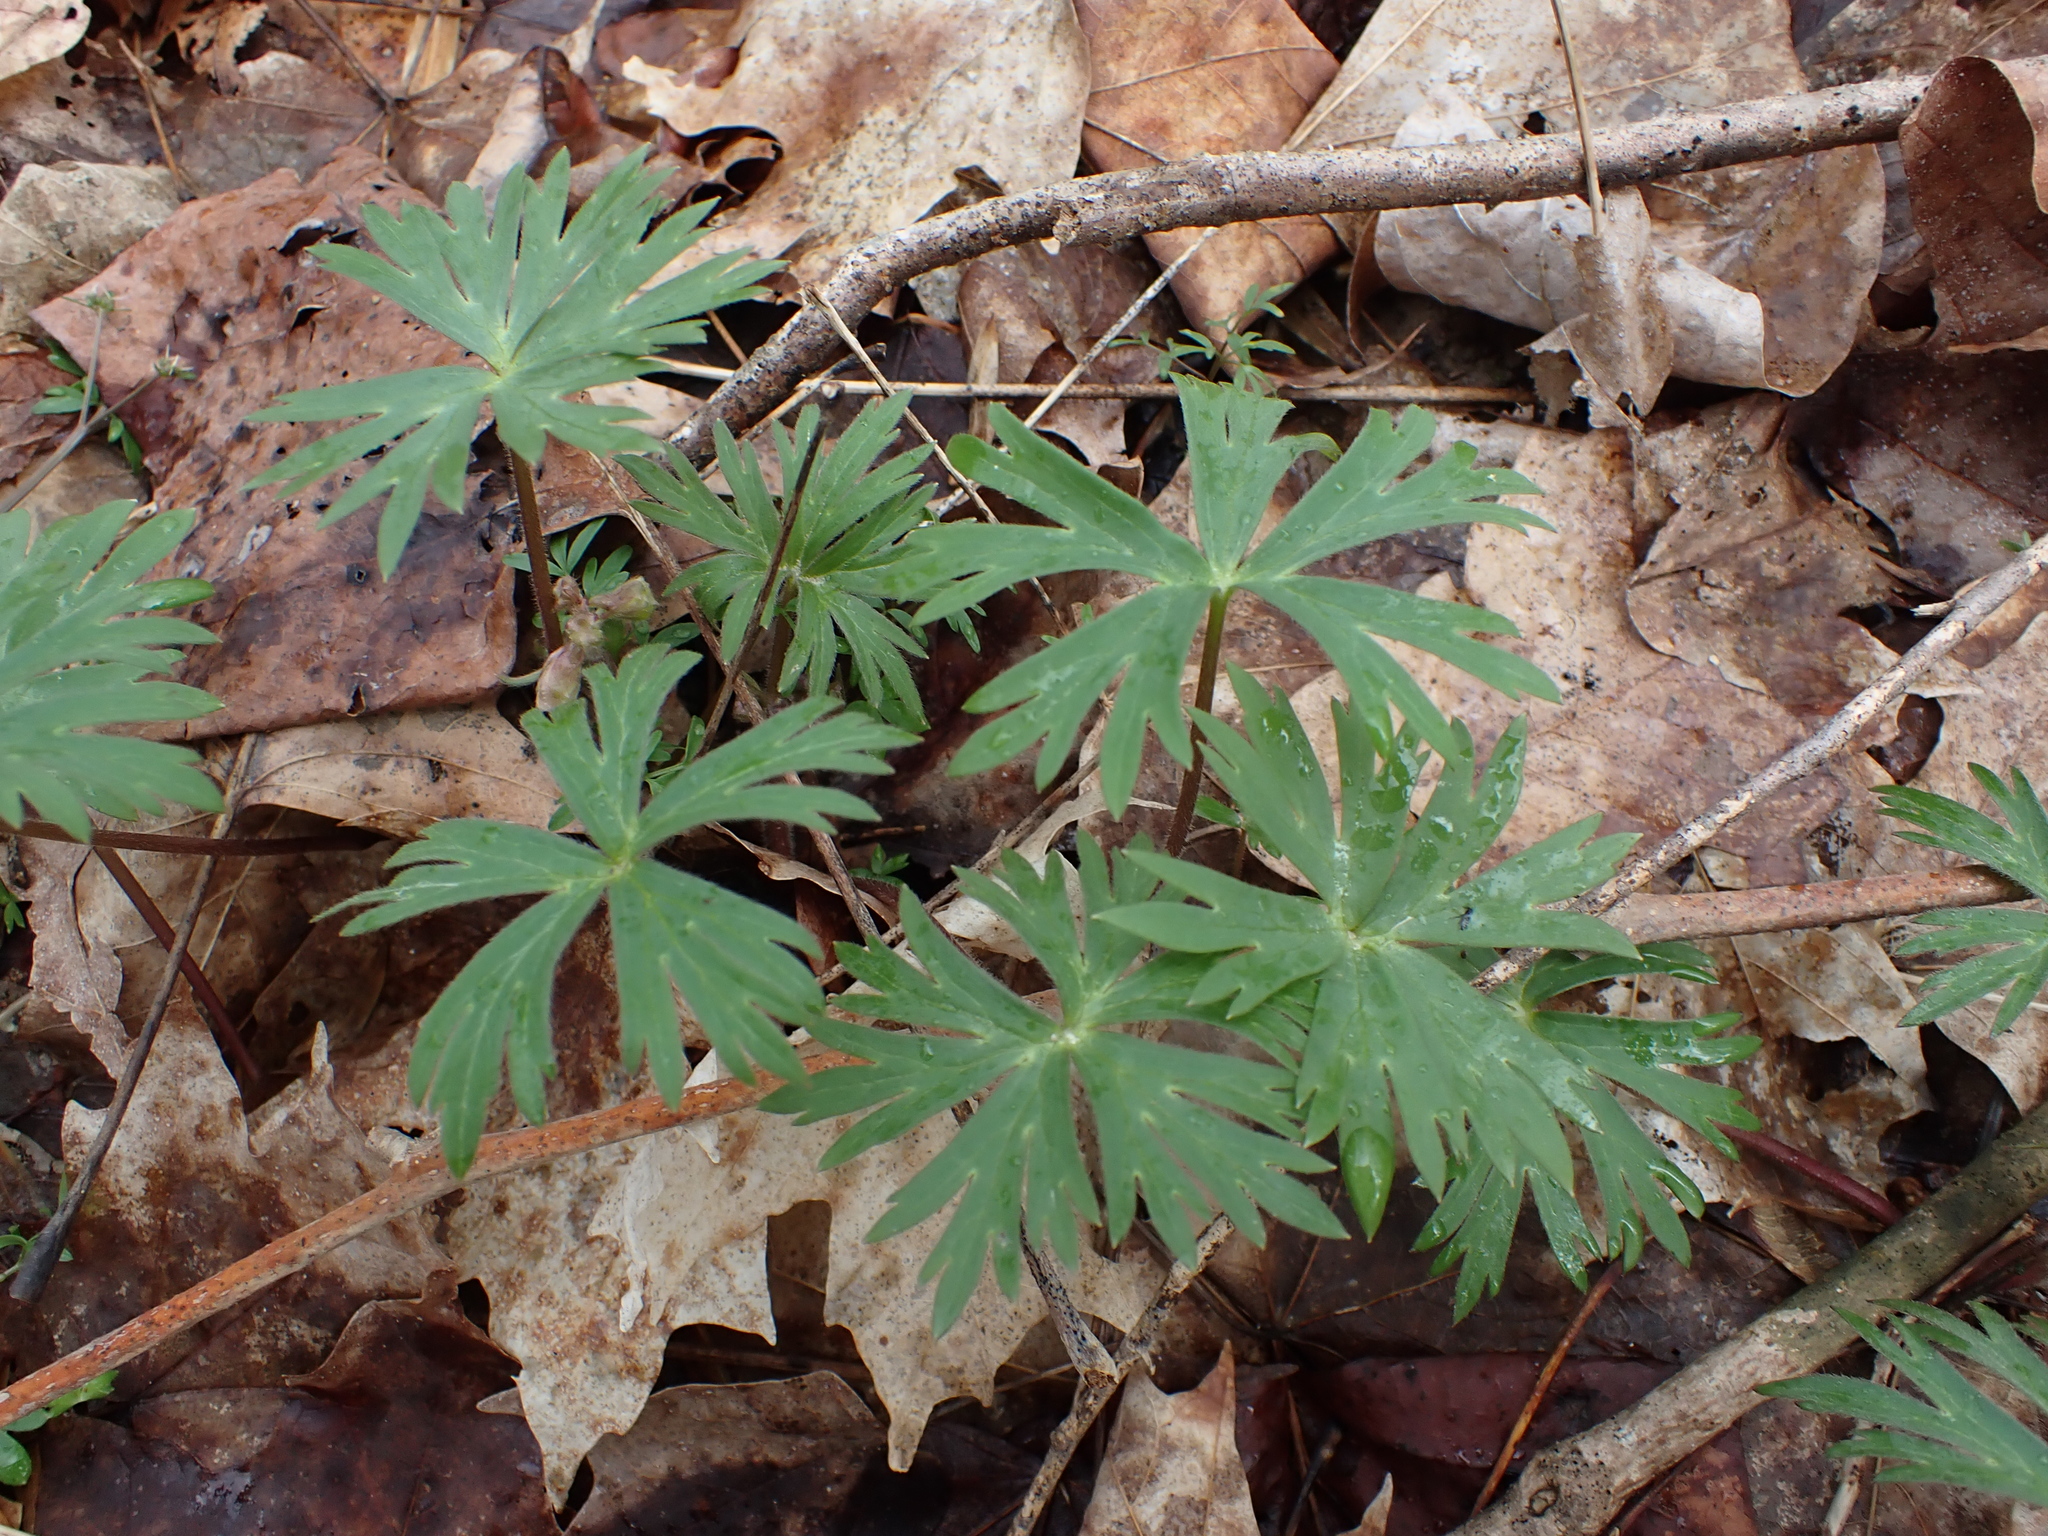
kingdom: Plantae
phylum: Tracheophyta
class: Magnoliopsida
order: Ranunculales
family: Ranunculaceae
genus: Delphinium
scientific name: Delphinium tricorne
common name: Dwarf larkspur
